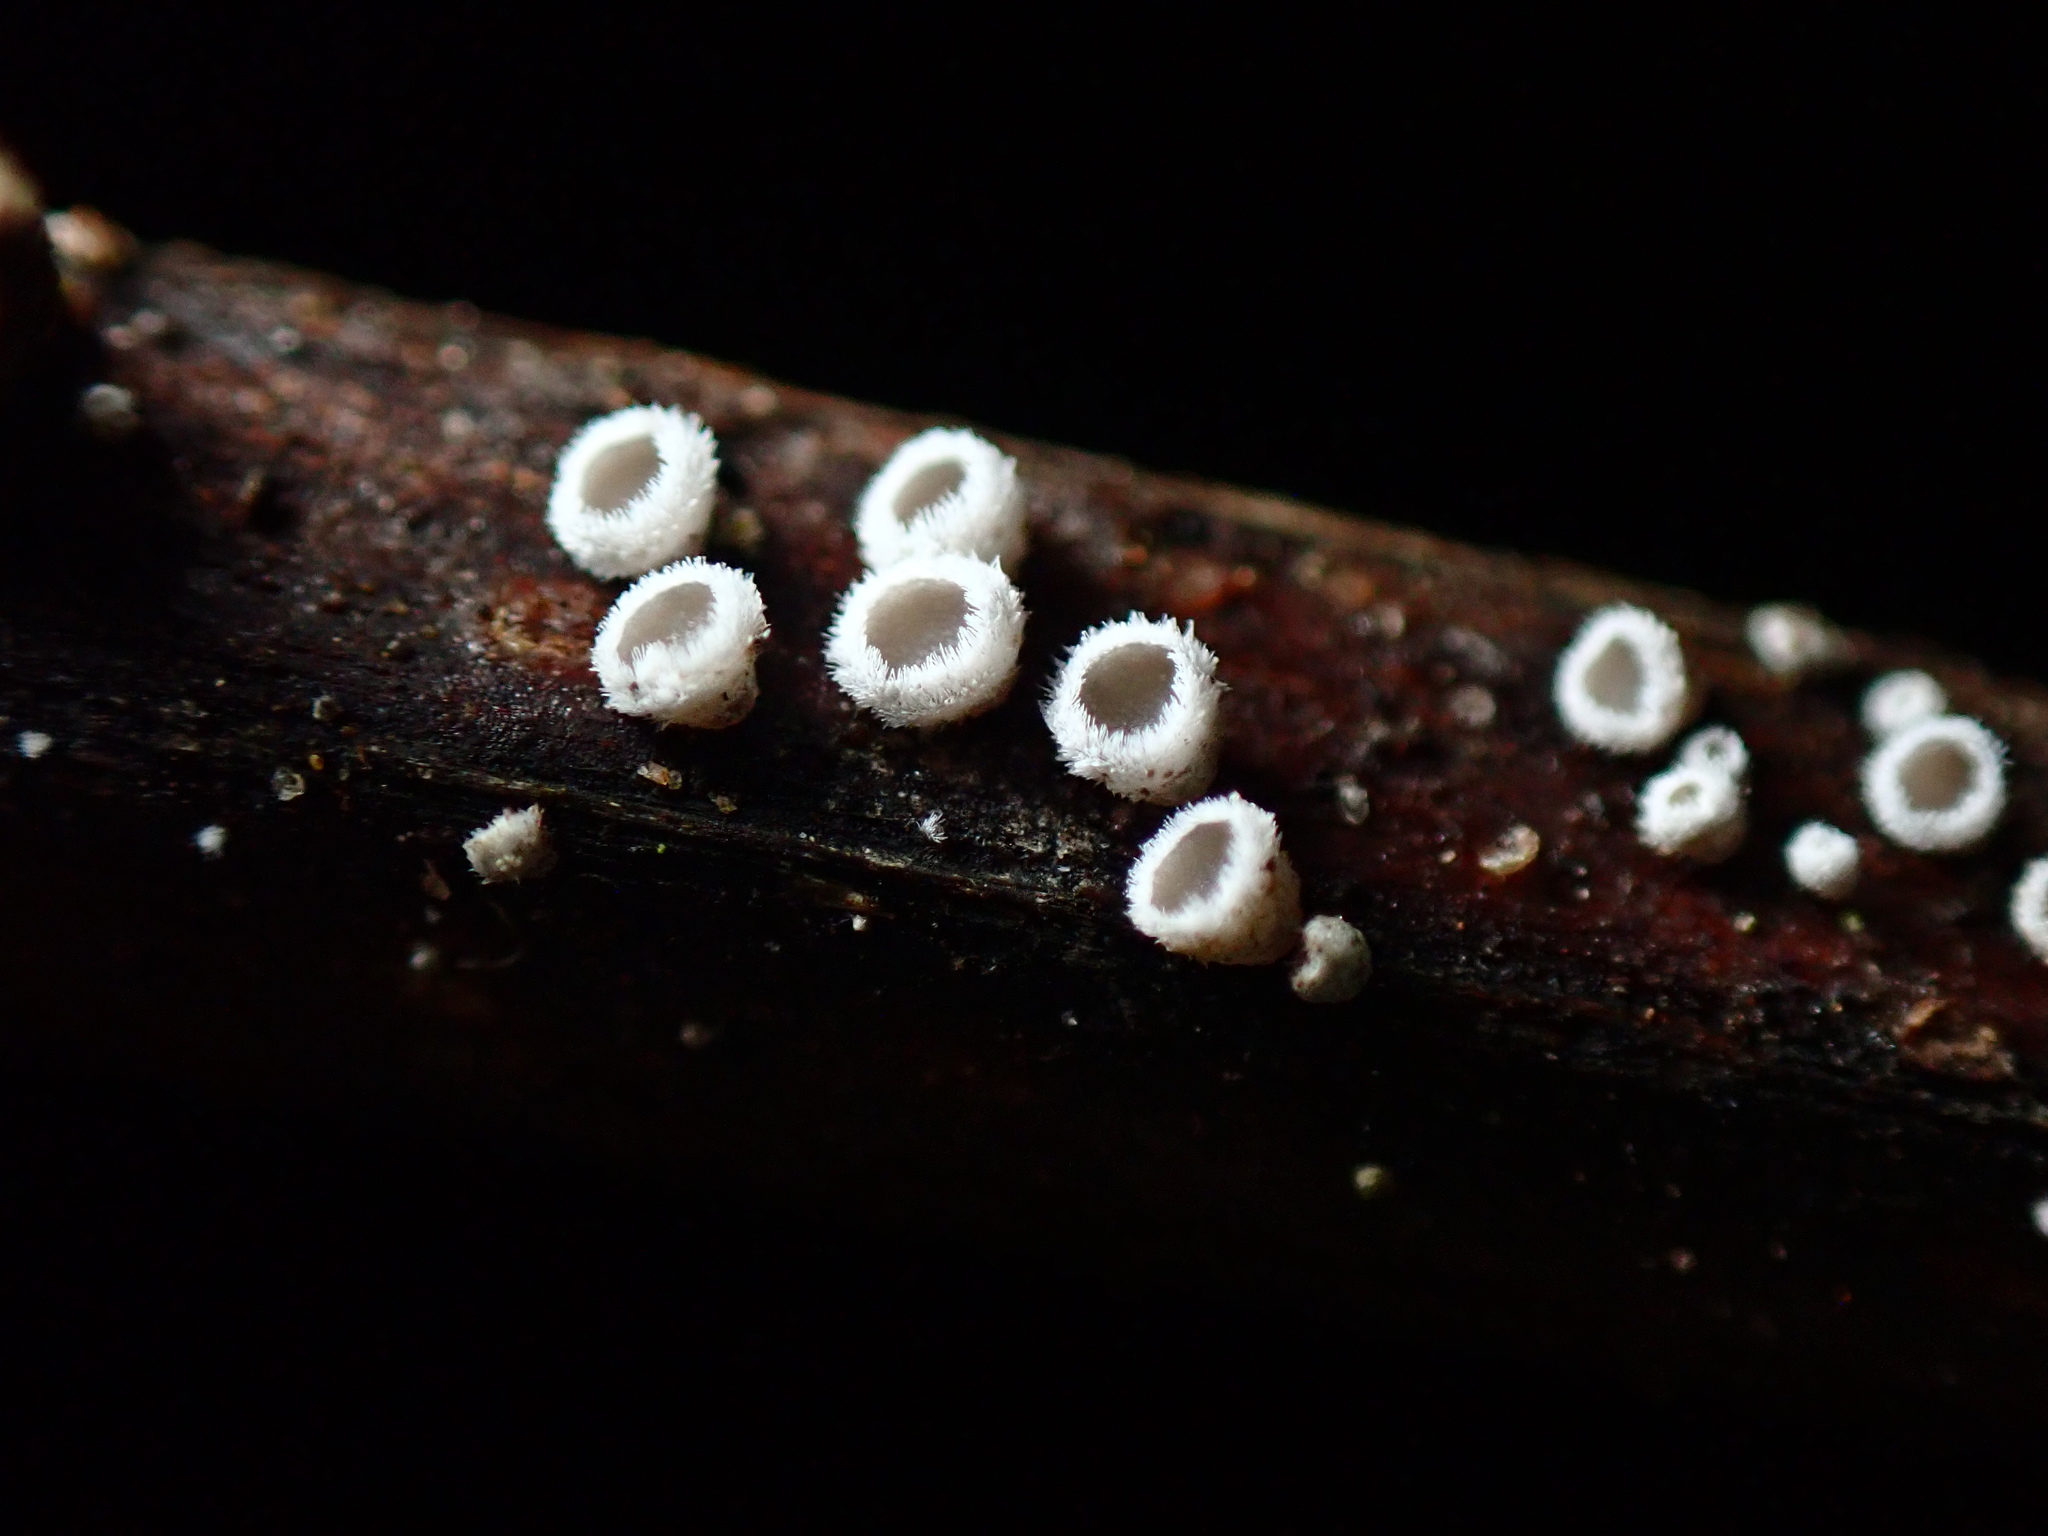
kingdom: Fungi
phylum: Ascomycota
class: Leotiomycetes
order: Helotiales
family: Lachnaceae
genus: Lachnum
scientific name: Lachnum virgineum
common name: Snowy disco
